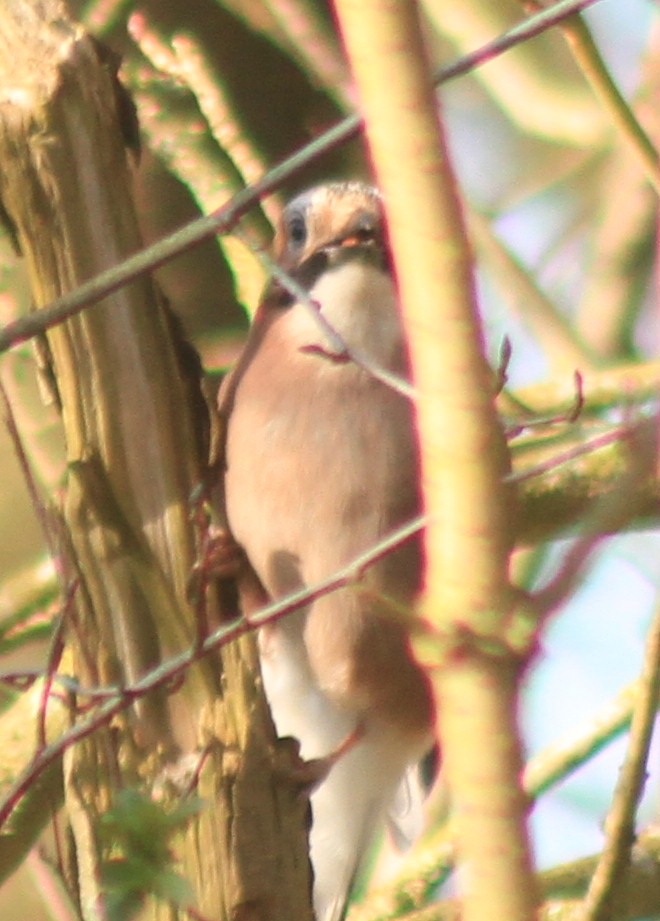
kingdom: Animalia
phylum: Chordata
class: Aves
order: Passeriformes
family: Corvidae
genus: Garrulus
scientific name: Garrulus glandarius
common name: Eurasian jay
